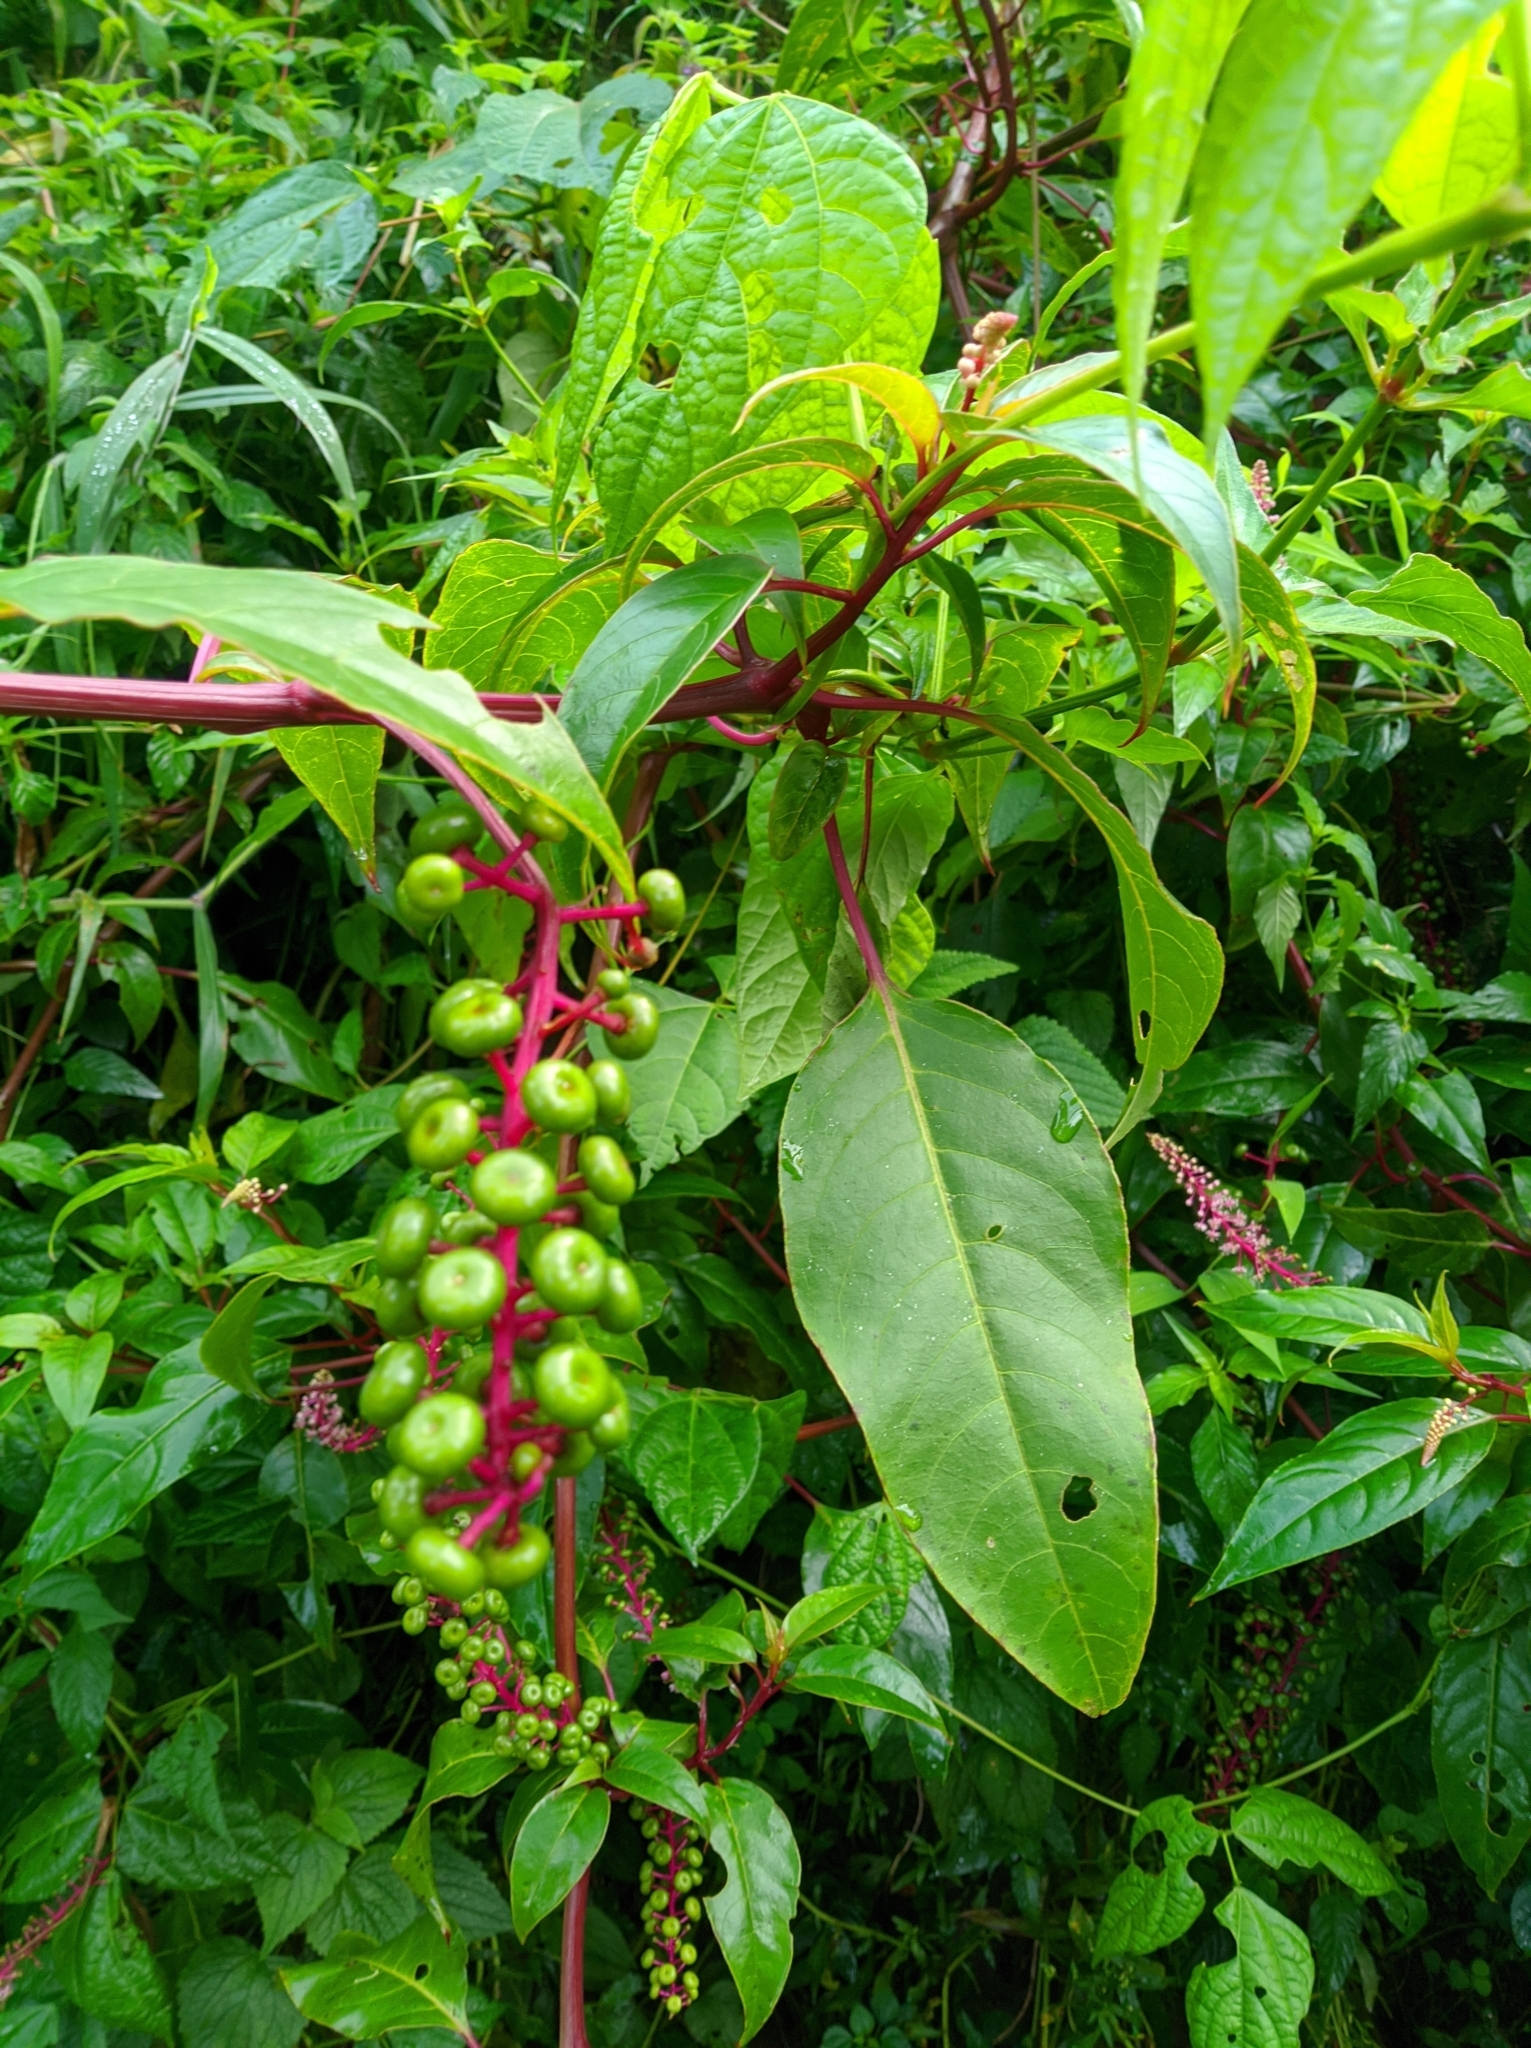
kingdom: Plantae
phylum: Tracheophyta
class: Magnoliopsida
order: Caryophyllales
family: Phytolaccaceae
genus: Phytolacca
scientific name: Phytolacca rivinoides
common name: Venezuelan pokeweed
